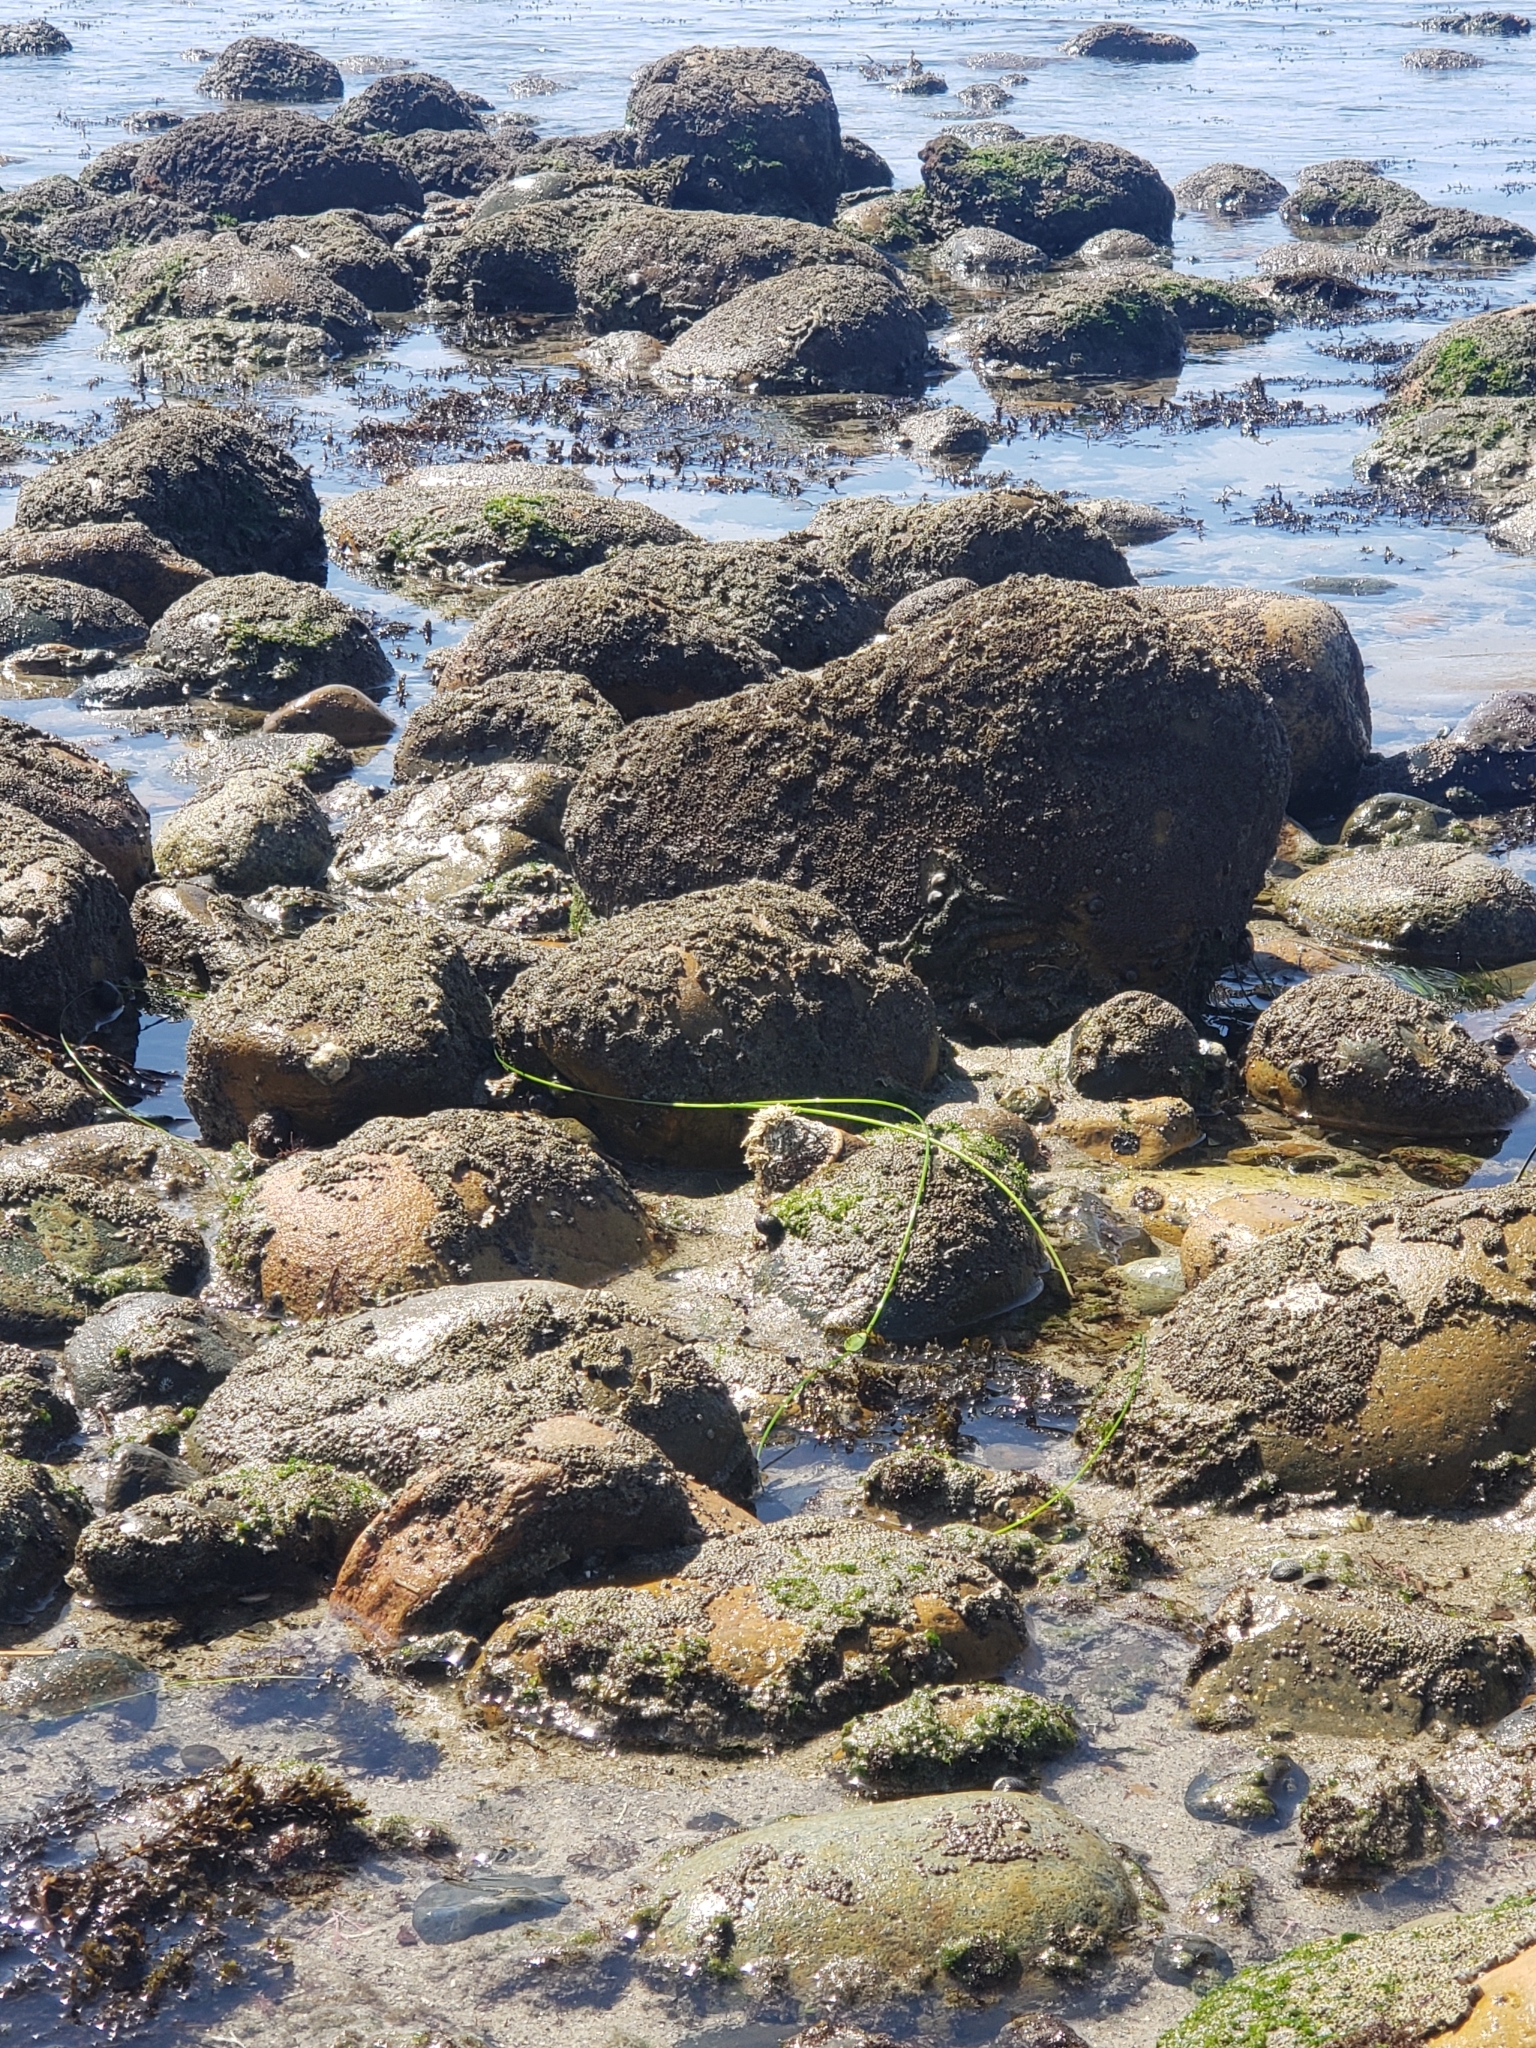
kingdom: Animalia
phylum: Mollusca
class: Gastropoda
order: Trochida
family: Turbinidae
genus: Megastraea
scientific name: Megastraea undosa
